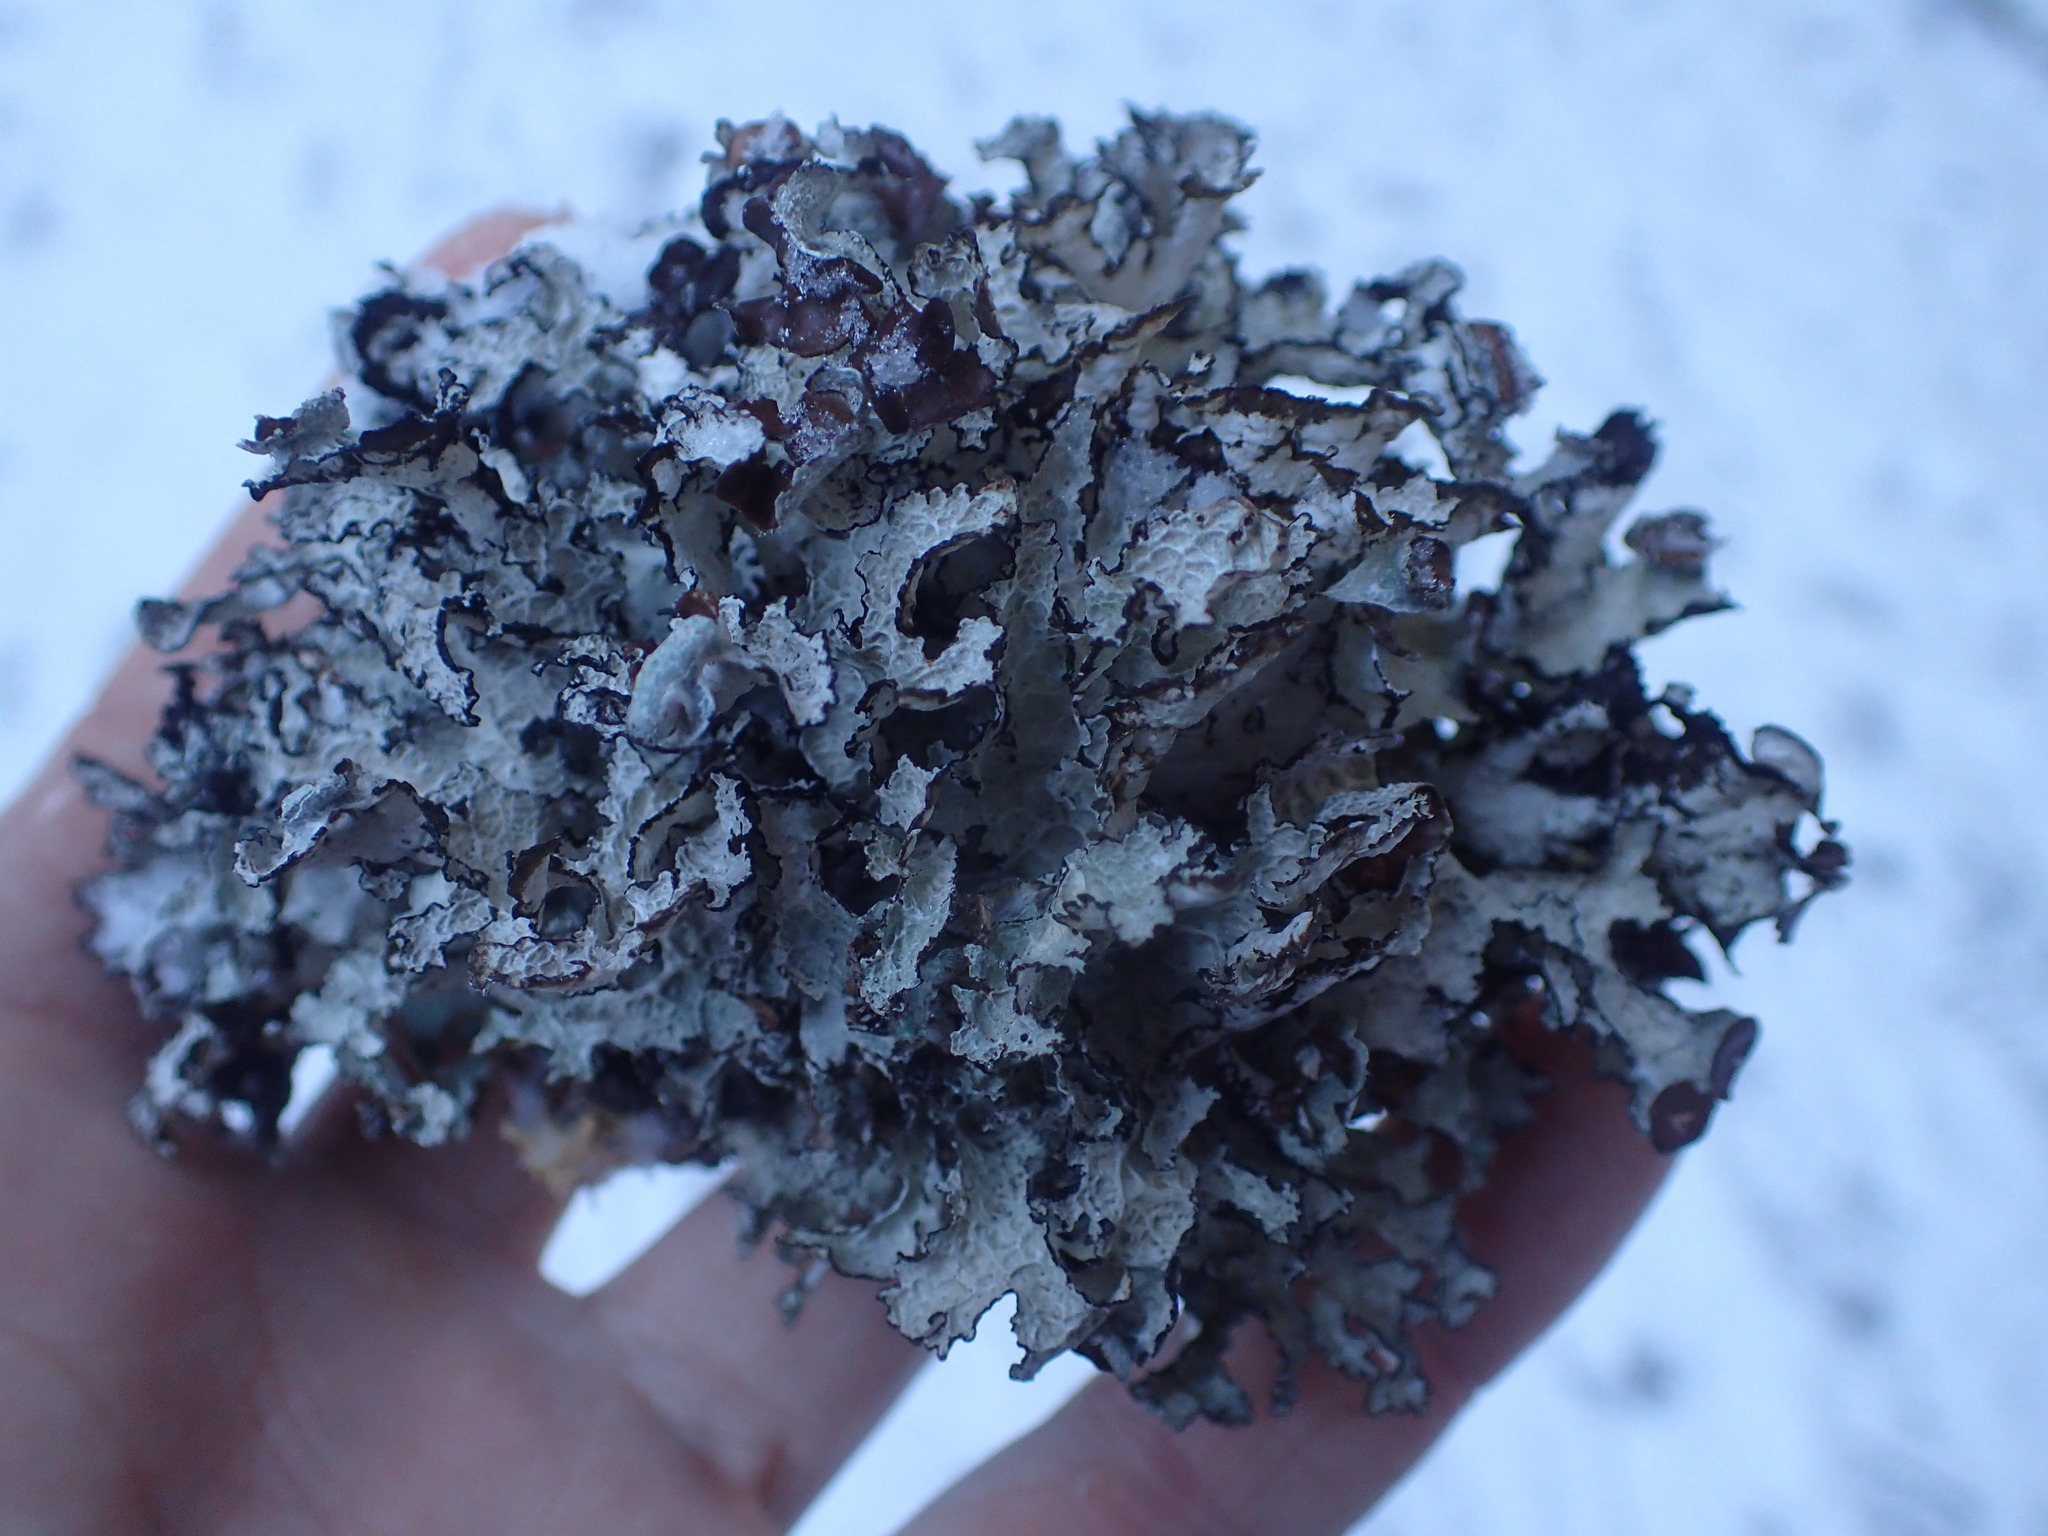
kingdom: Fungi
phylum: Ascomycota
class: Lecanoromycetes
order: Lecanorales
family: Parmeliaceae
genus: Platismatia
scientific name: Platismatia tuckermanii
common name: Crumpled rag lichen
